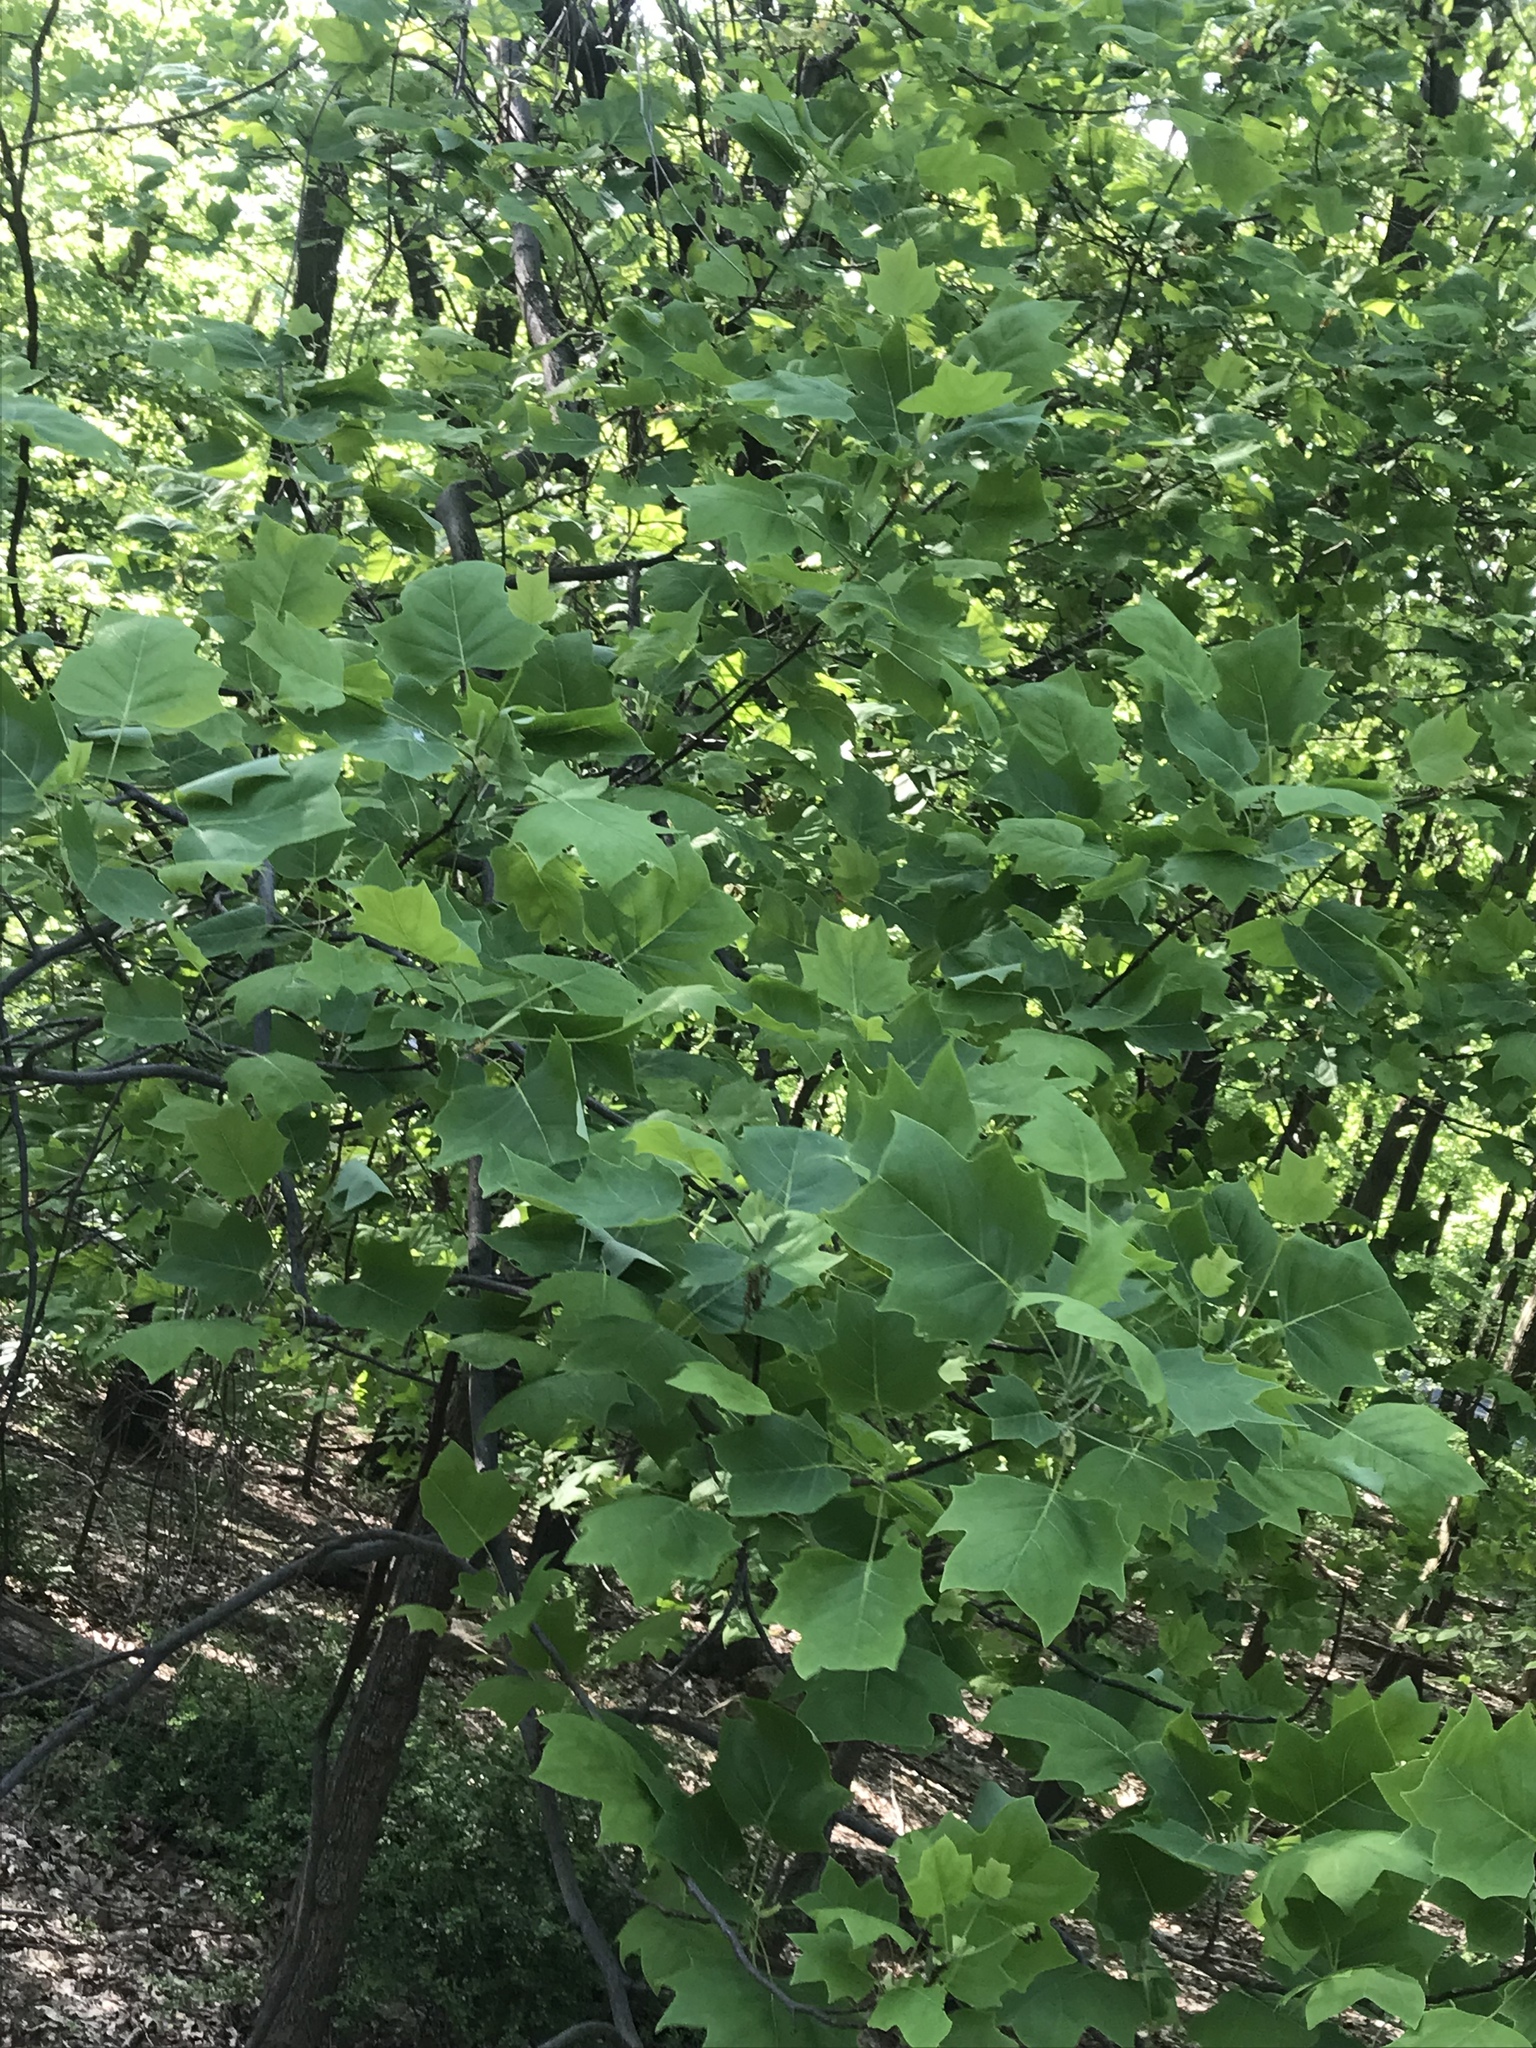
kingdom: Plantae
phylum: Tracheophyta
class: Magnoliopsida
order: Magnoliales
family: Magnoliaceae
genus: Liriodendron
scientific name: Liriodendron tulipifera
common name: Tulip tree
